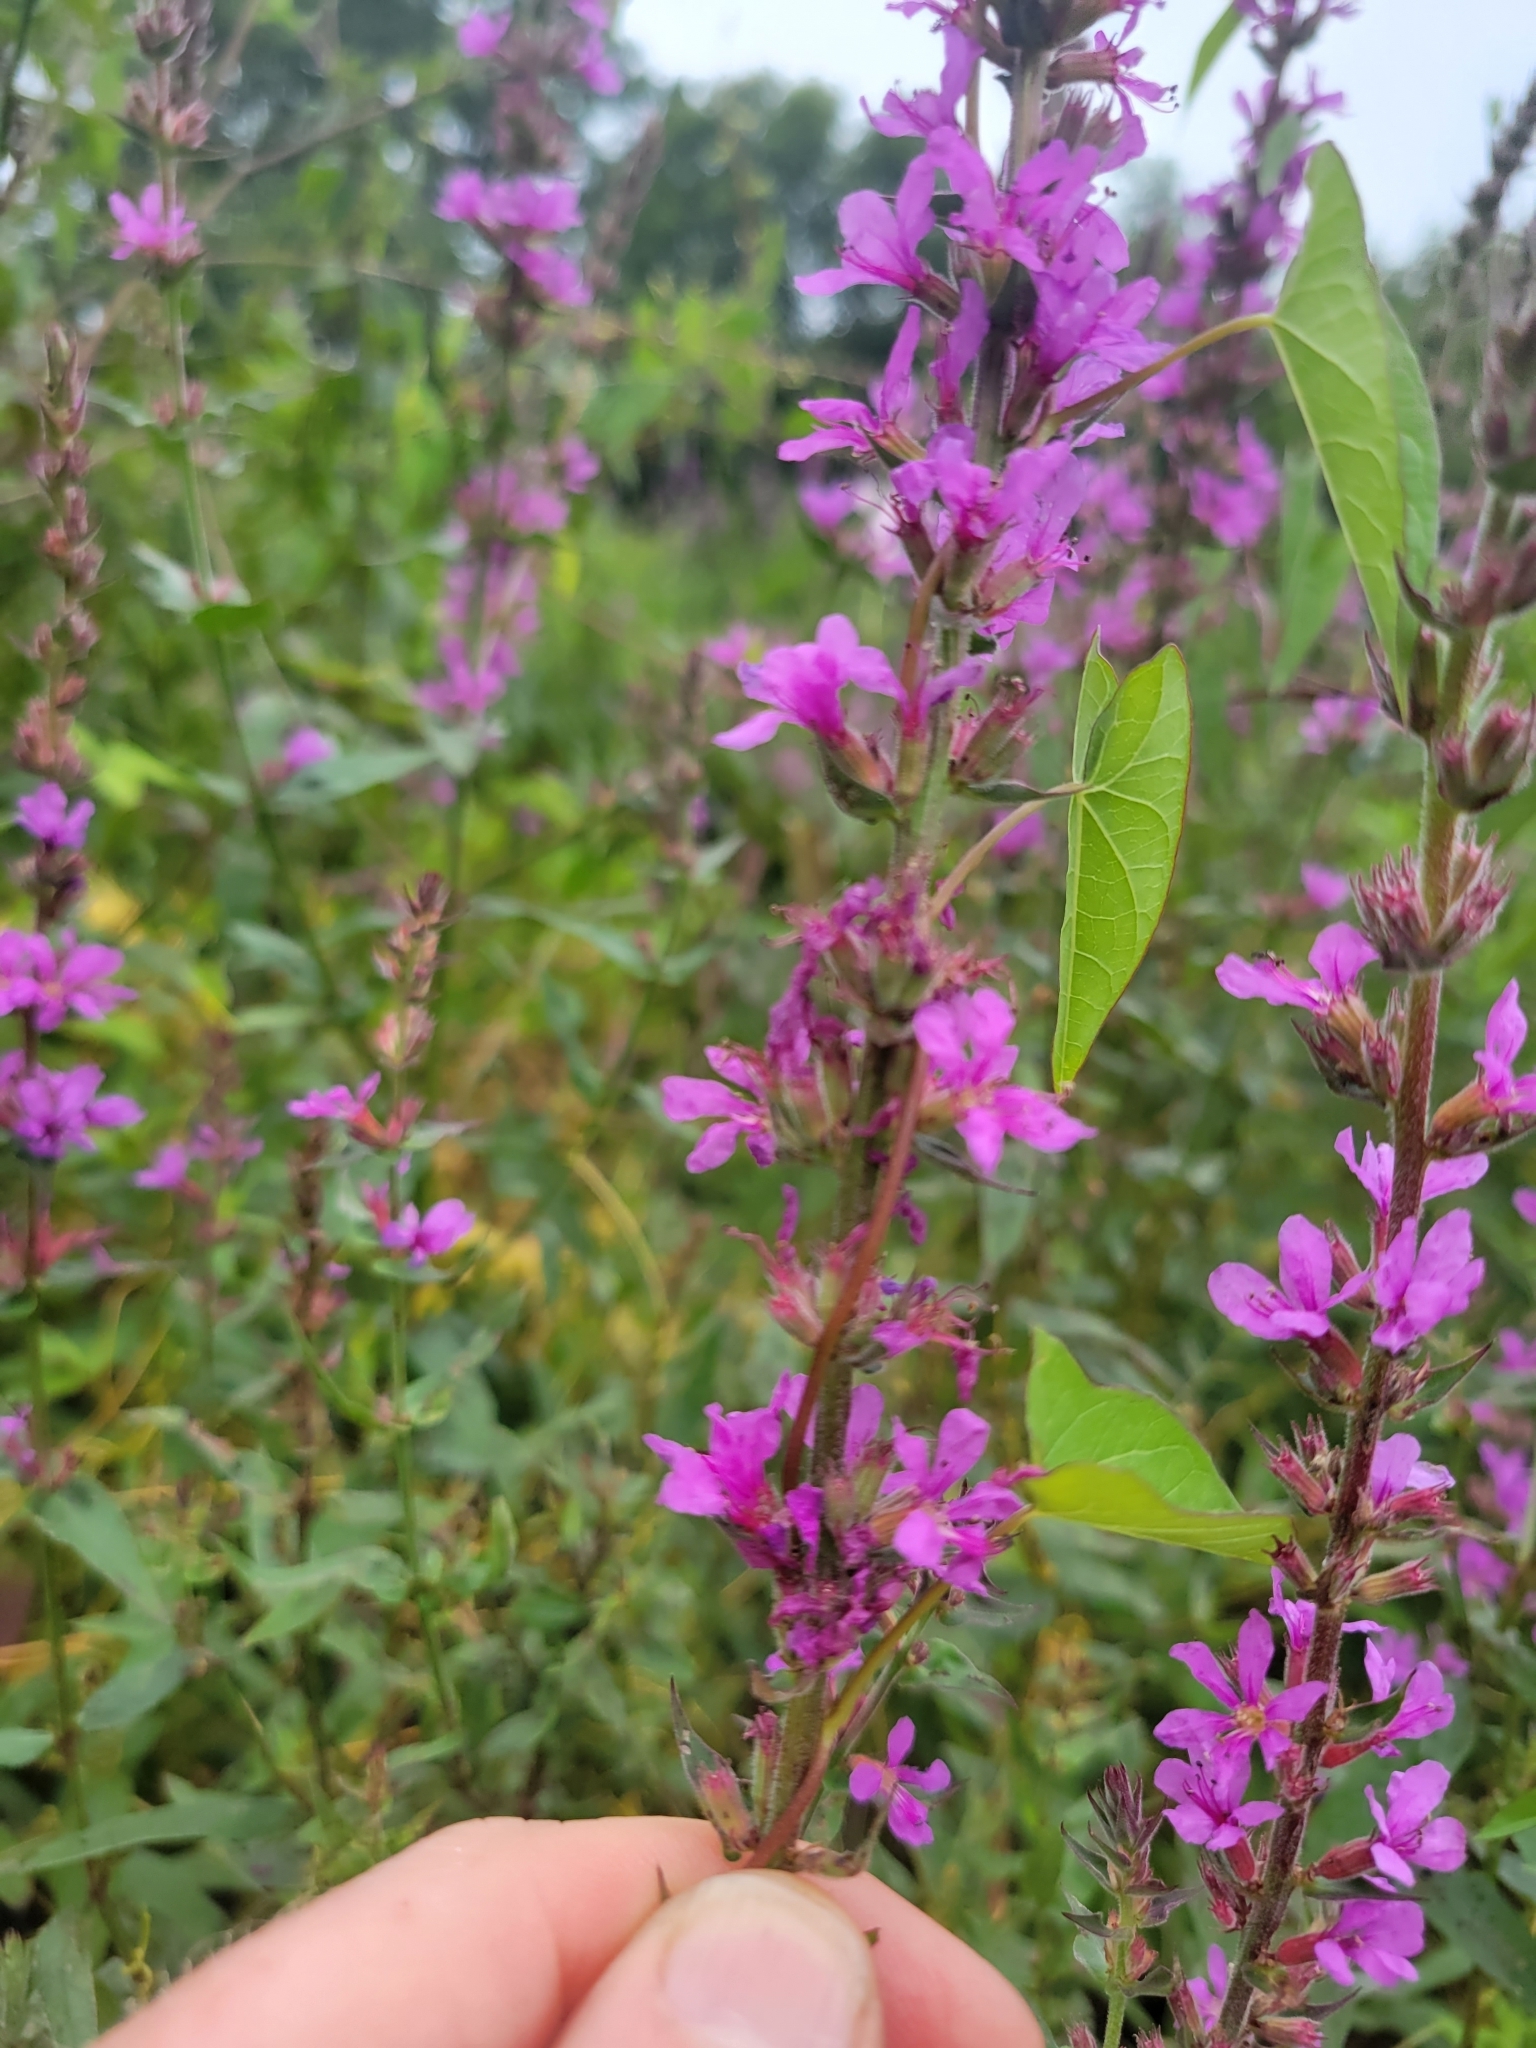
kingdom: Plantae
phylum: Tracheophyta
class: Magnoliopsida
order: Myrtales
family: Lythraceae
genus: Lythrum
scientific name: Lythrum salicaria
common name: Purple loosestrife
